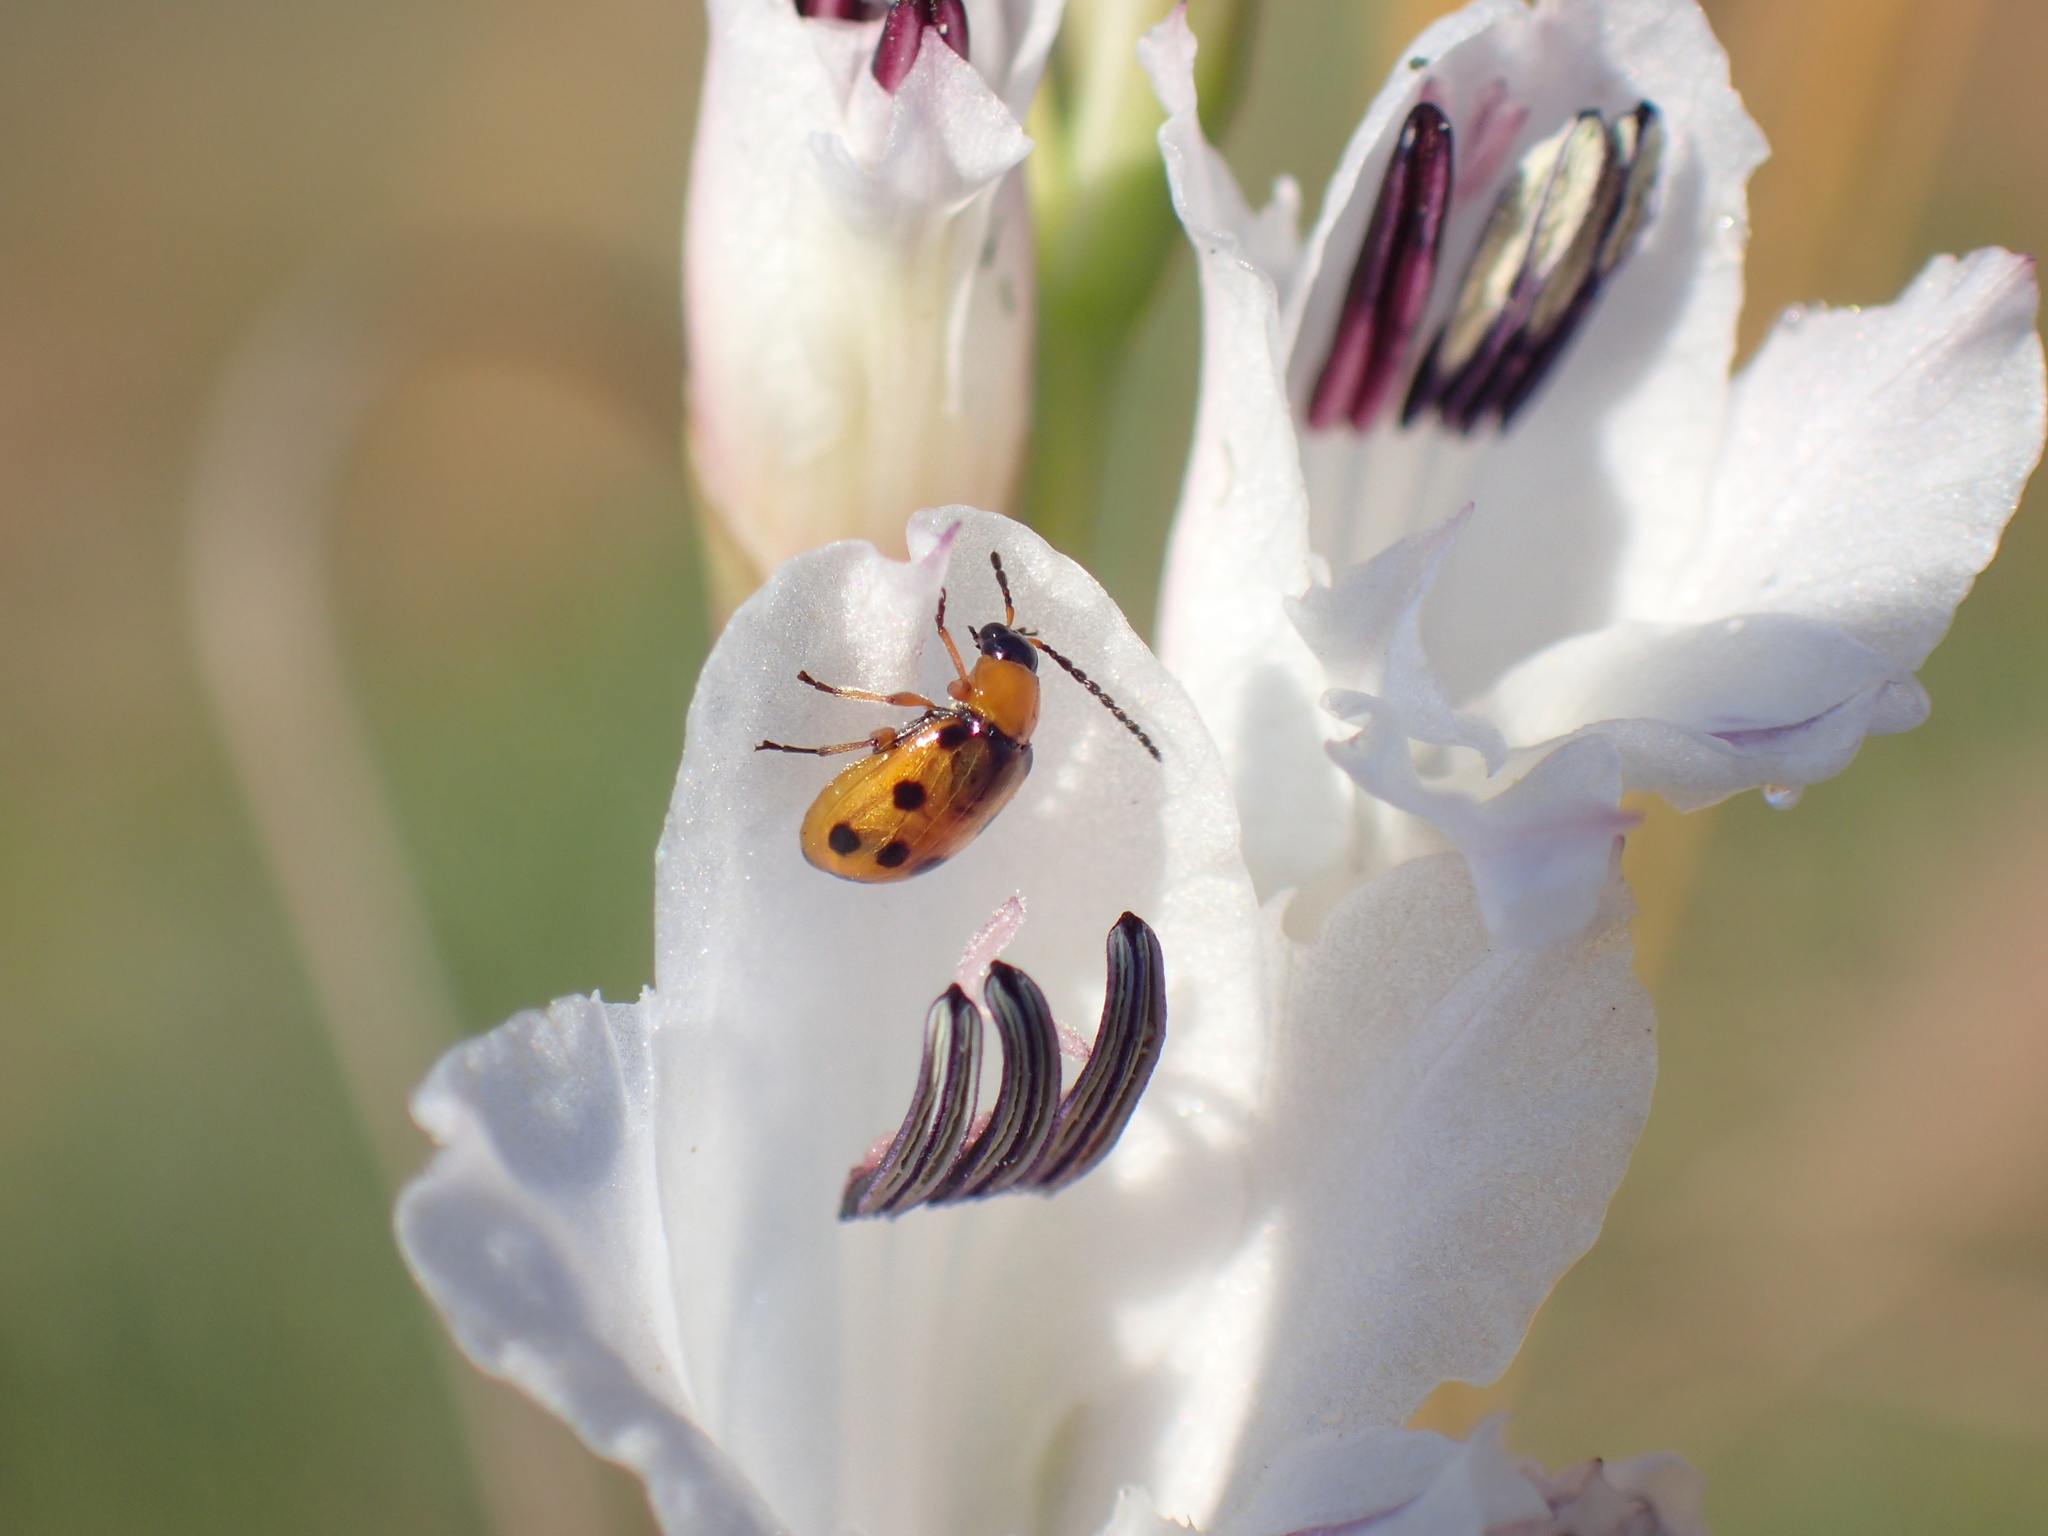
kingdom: Animalia
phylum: Arthropoda
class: Insecta
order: Coleoptera
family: Chrysomelidae
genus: Afromaculepta
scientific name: Afromaculepta
